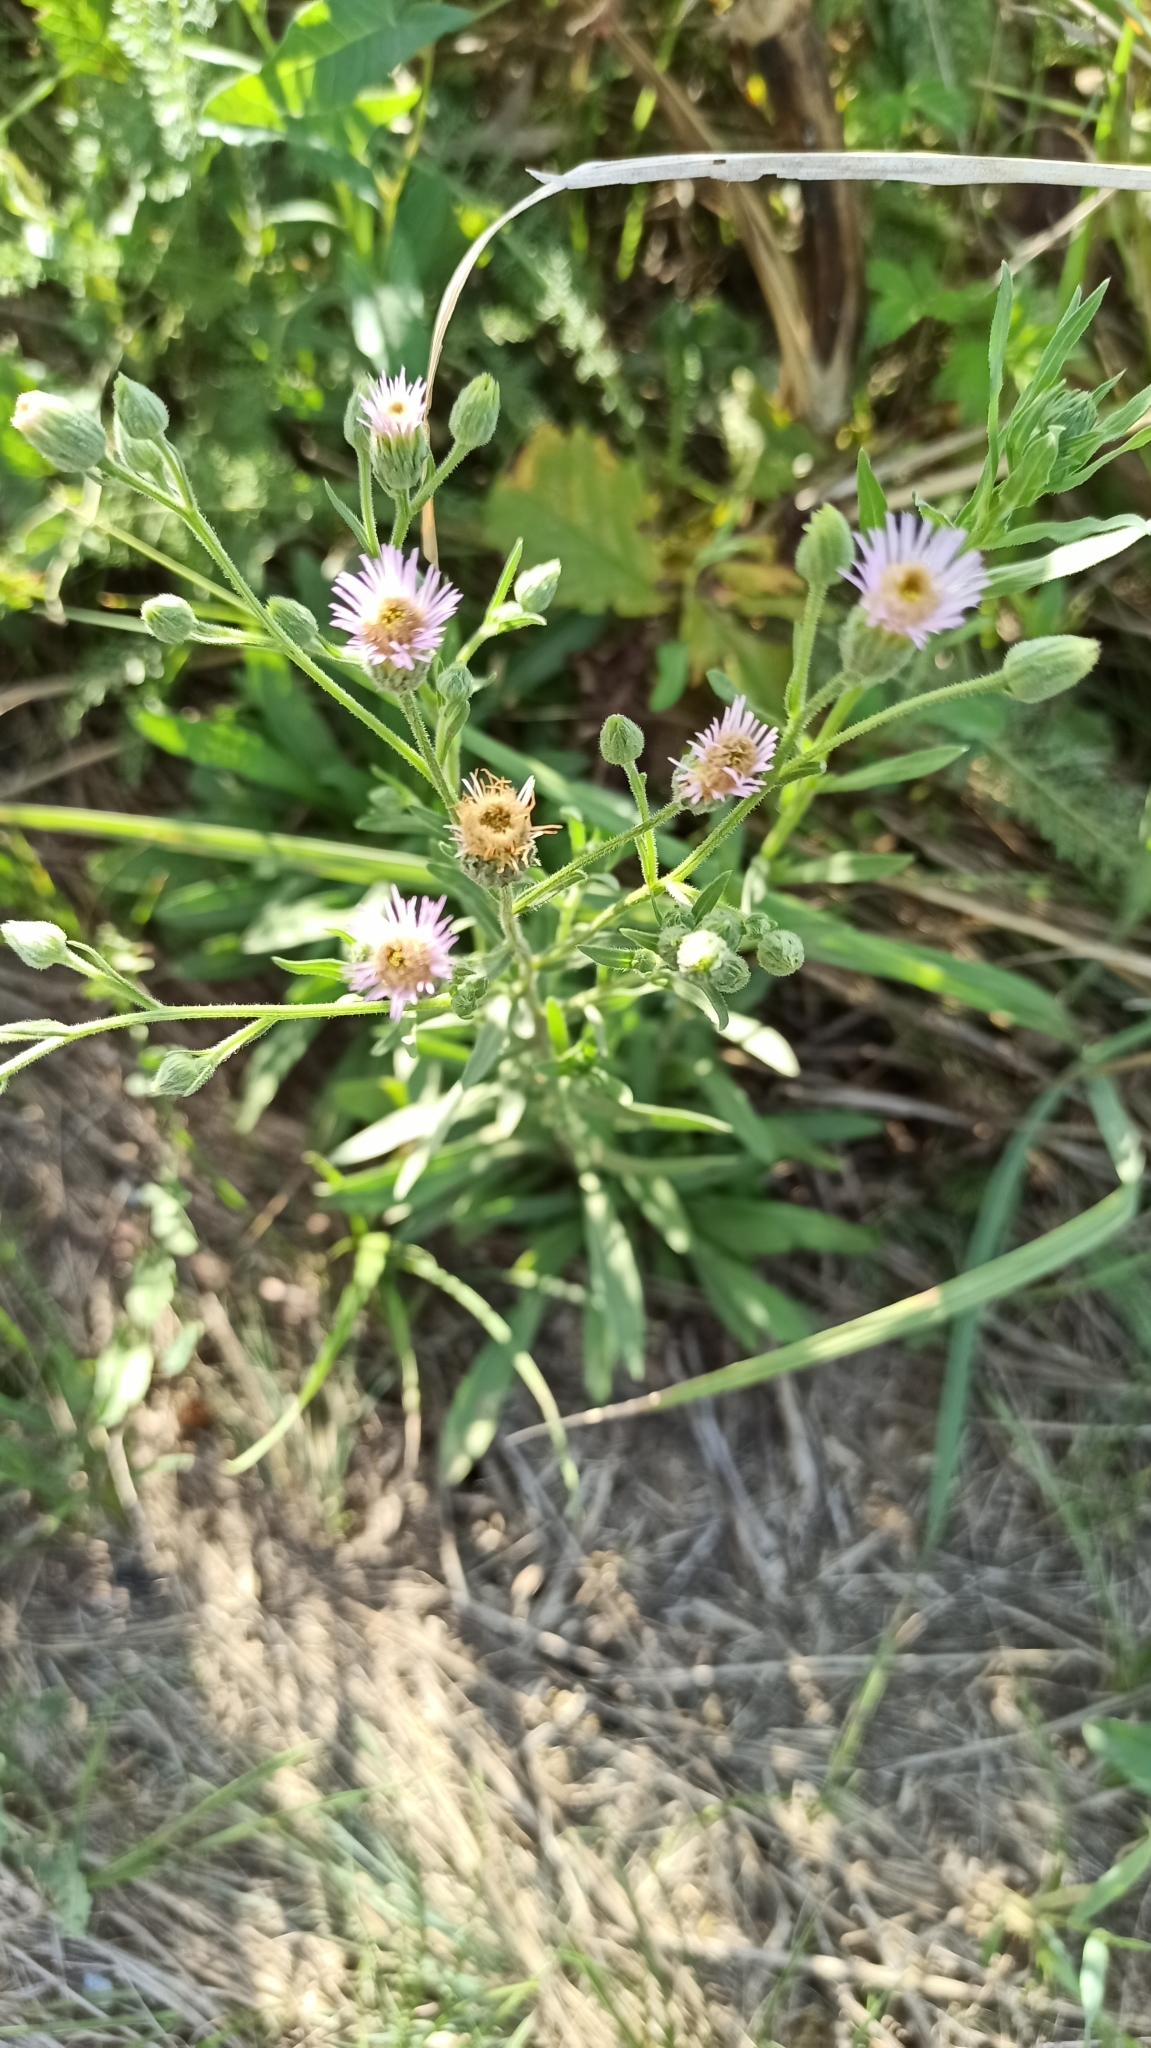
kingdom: Plantae
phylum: Tracheophyta
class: Magnoliopsida
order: Asterales
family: Asteraceae
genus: Erigeron
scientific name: Erigeron podolicus
